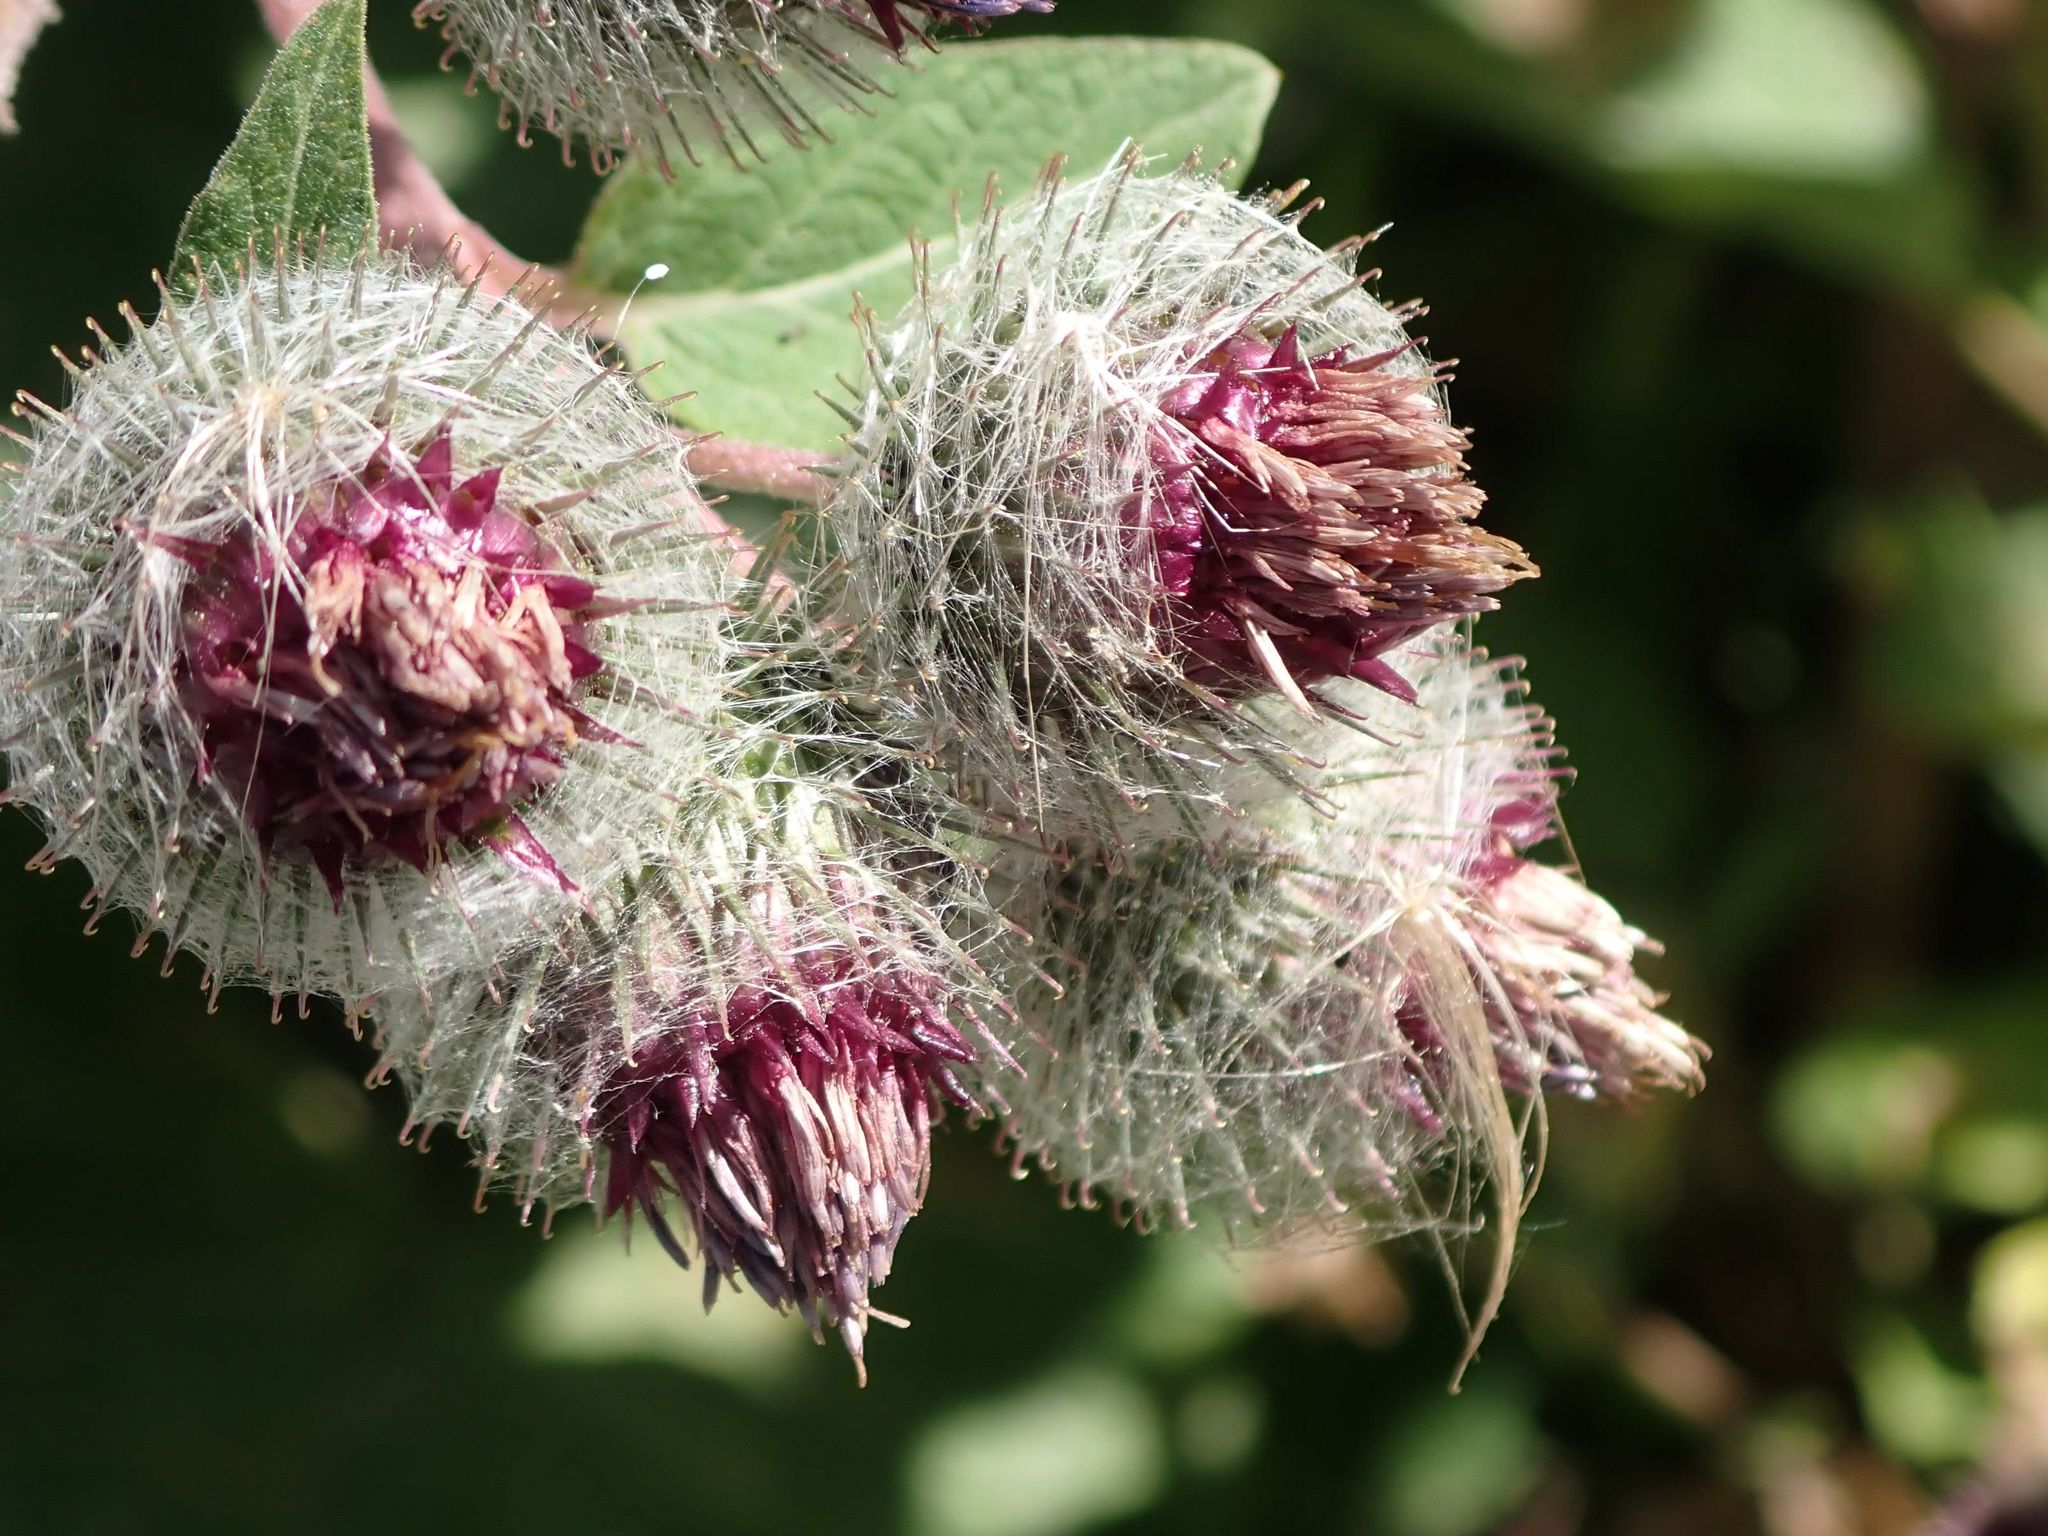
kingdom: Plantae
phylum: Tracheophyta
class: Magnoliopsida
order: Asterales
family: Asteraceae
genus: Arctium
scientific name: Arctium tomentosum
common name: Woolly burdock
